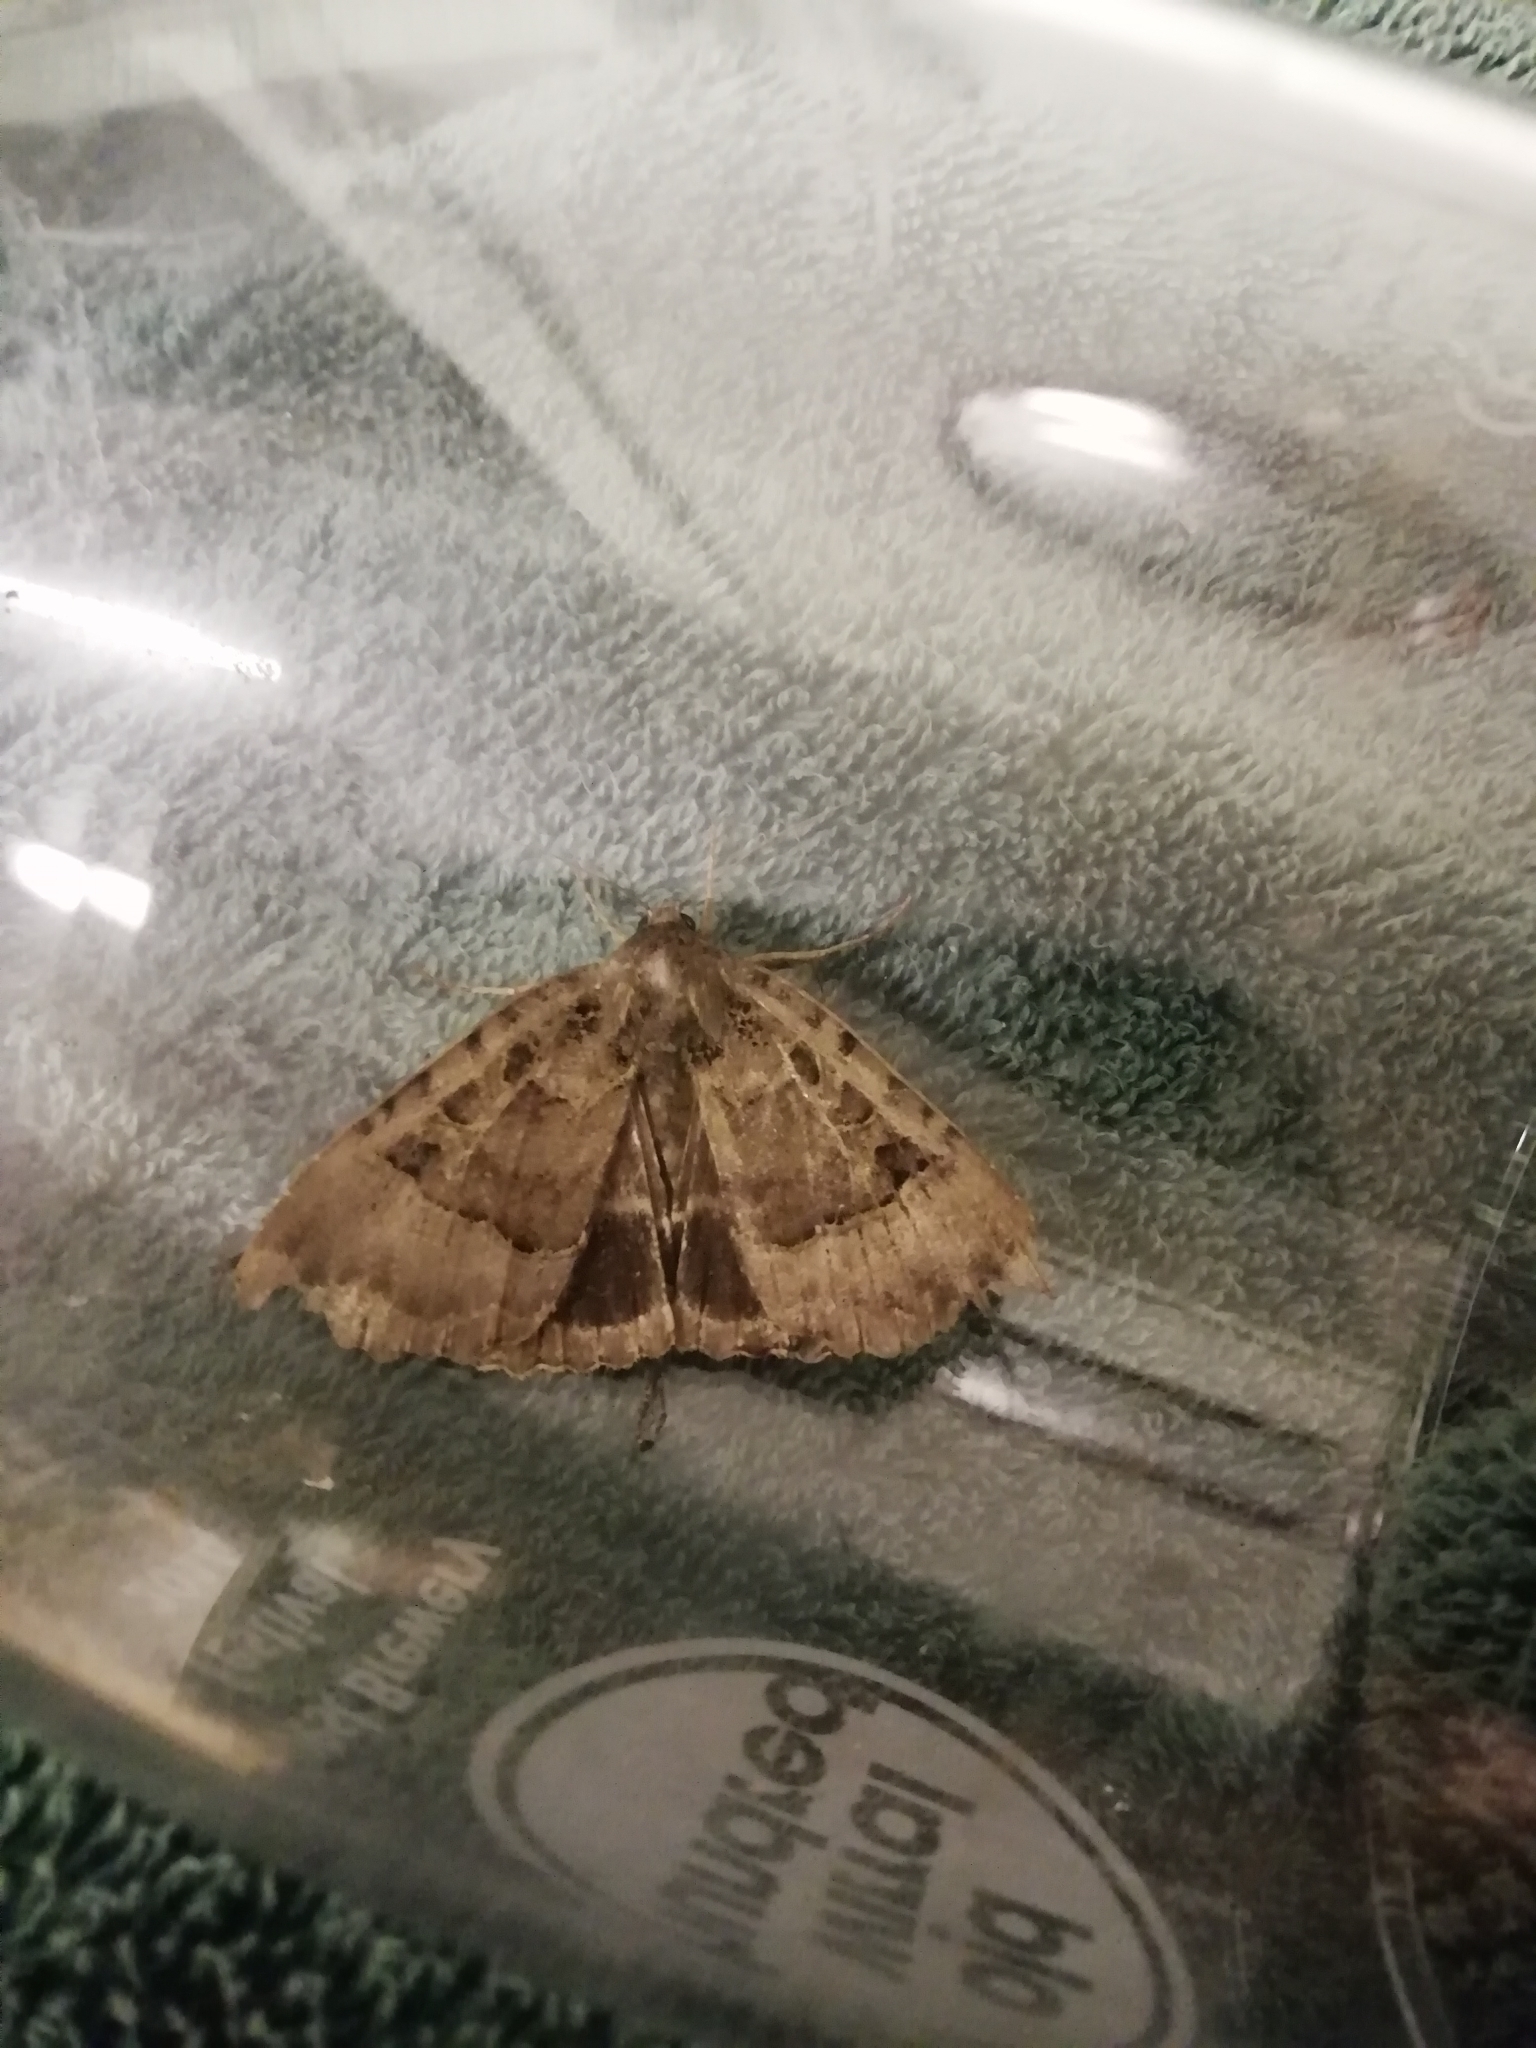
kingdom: Animalia
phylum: Arthropoda
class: Insecta
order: Lepidoptera
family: Noctuidae
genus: Mormo
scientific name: Mormo maura
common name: Old lady
